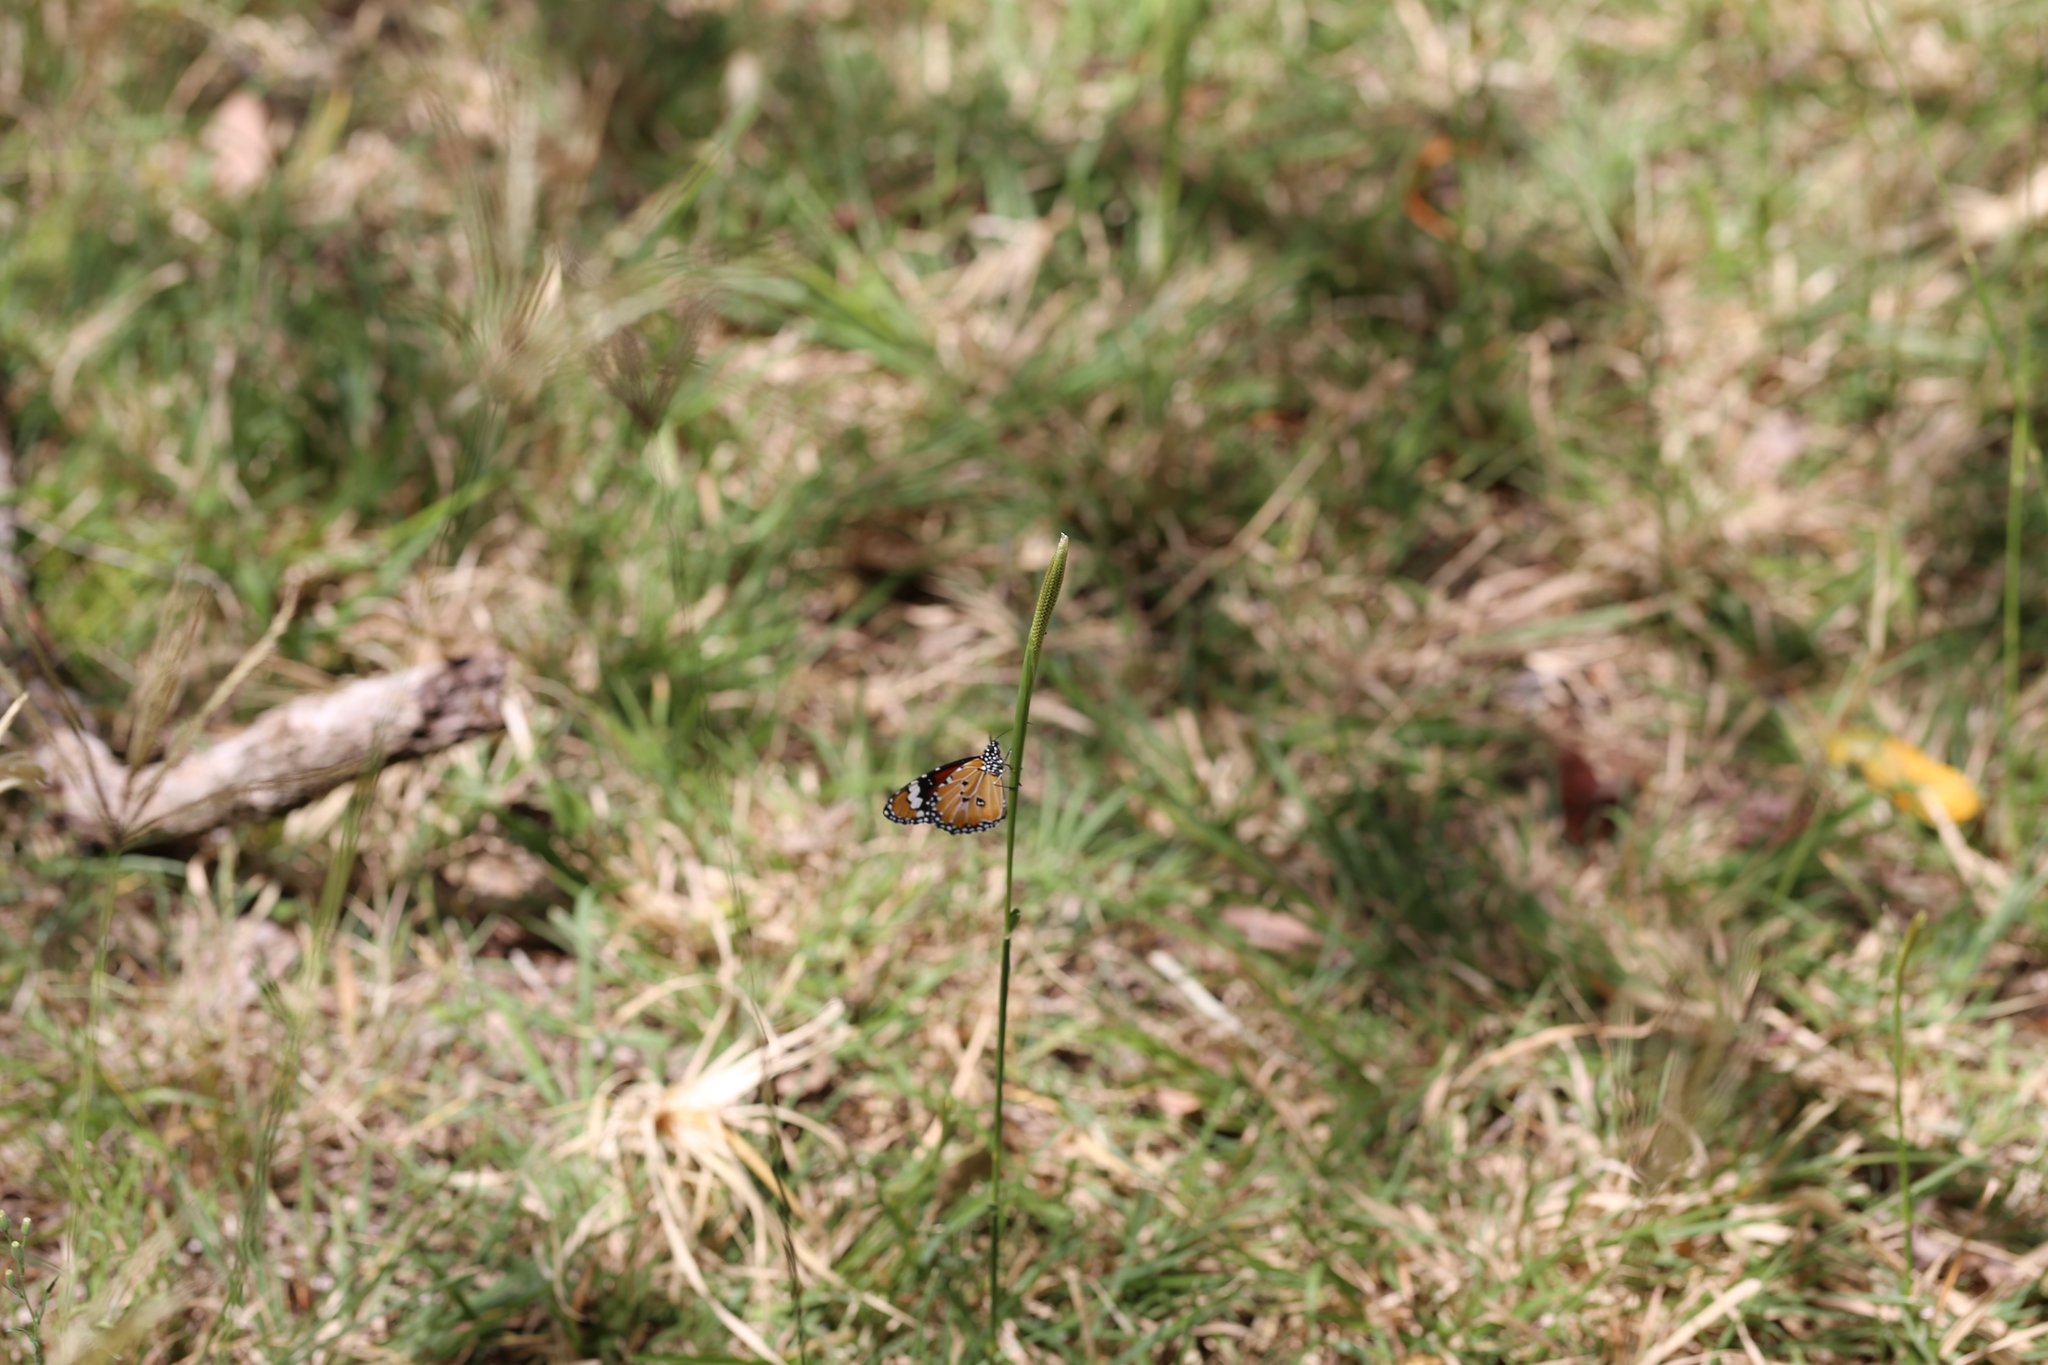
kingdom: Animalia
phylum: Arthropoda
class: Insecta
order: Lepidoptera
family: Nymphalidae
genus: Danaus
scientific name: Danaus chrysippus
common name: Plain tiger
